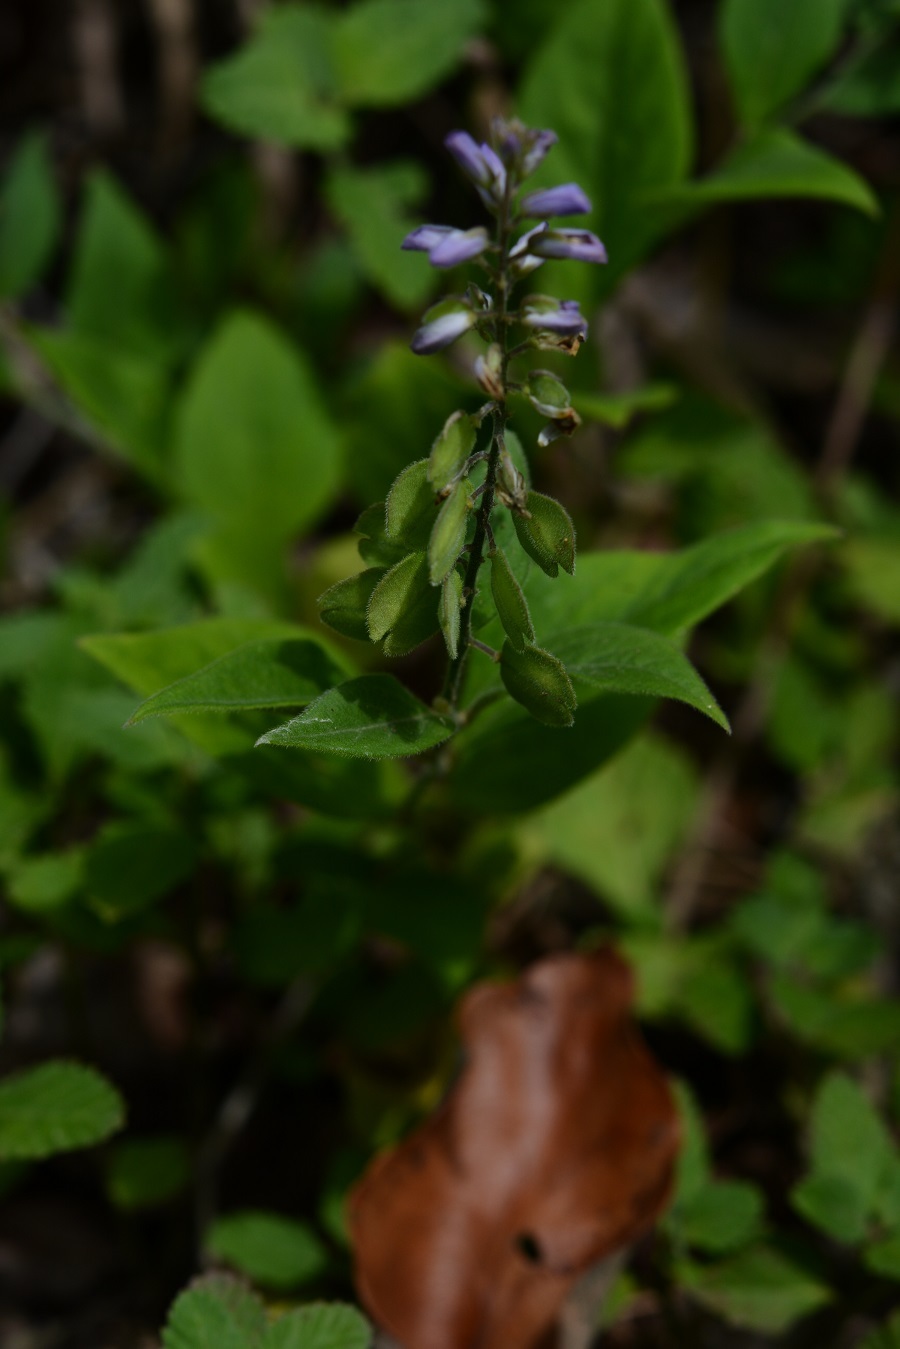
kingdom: Plantae
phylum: Tracheophyta
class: Magnoliopsida
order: Fabales
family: Polygalaceae
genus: Hebecarpa
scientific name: Hebecarpa costaricensis
